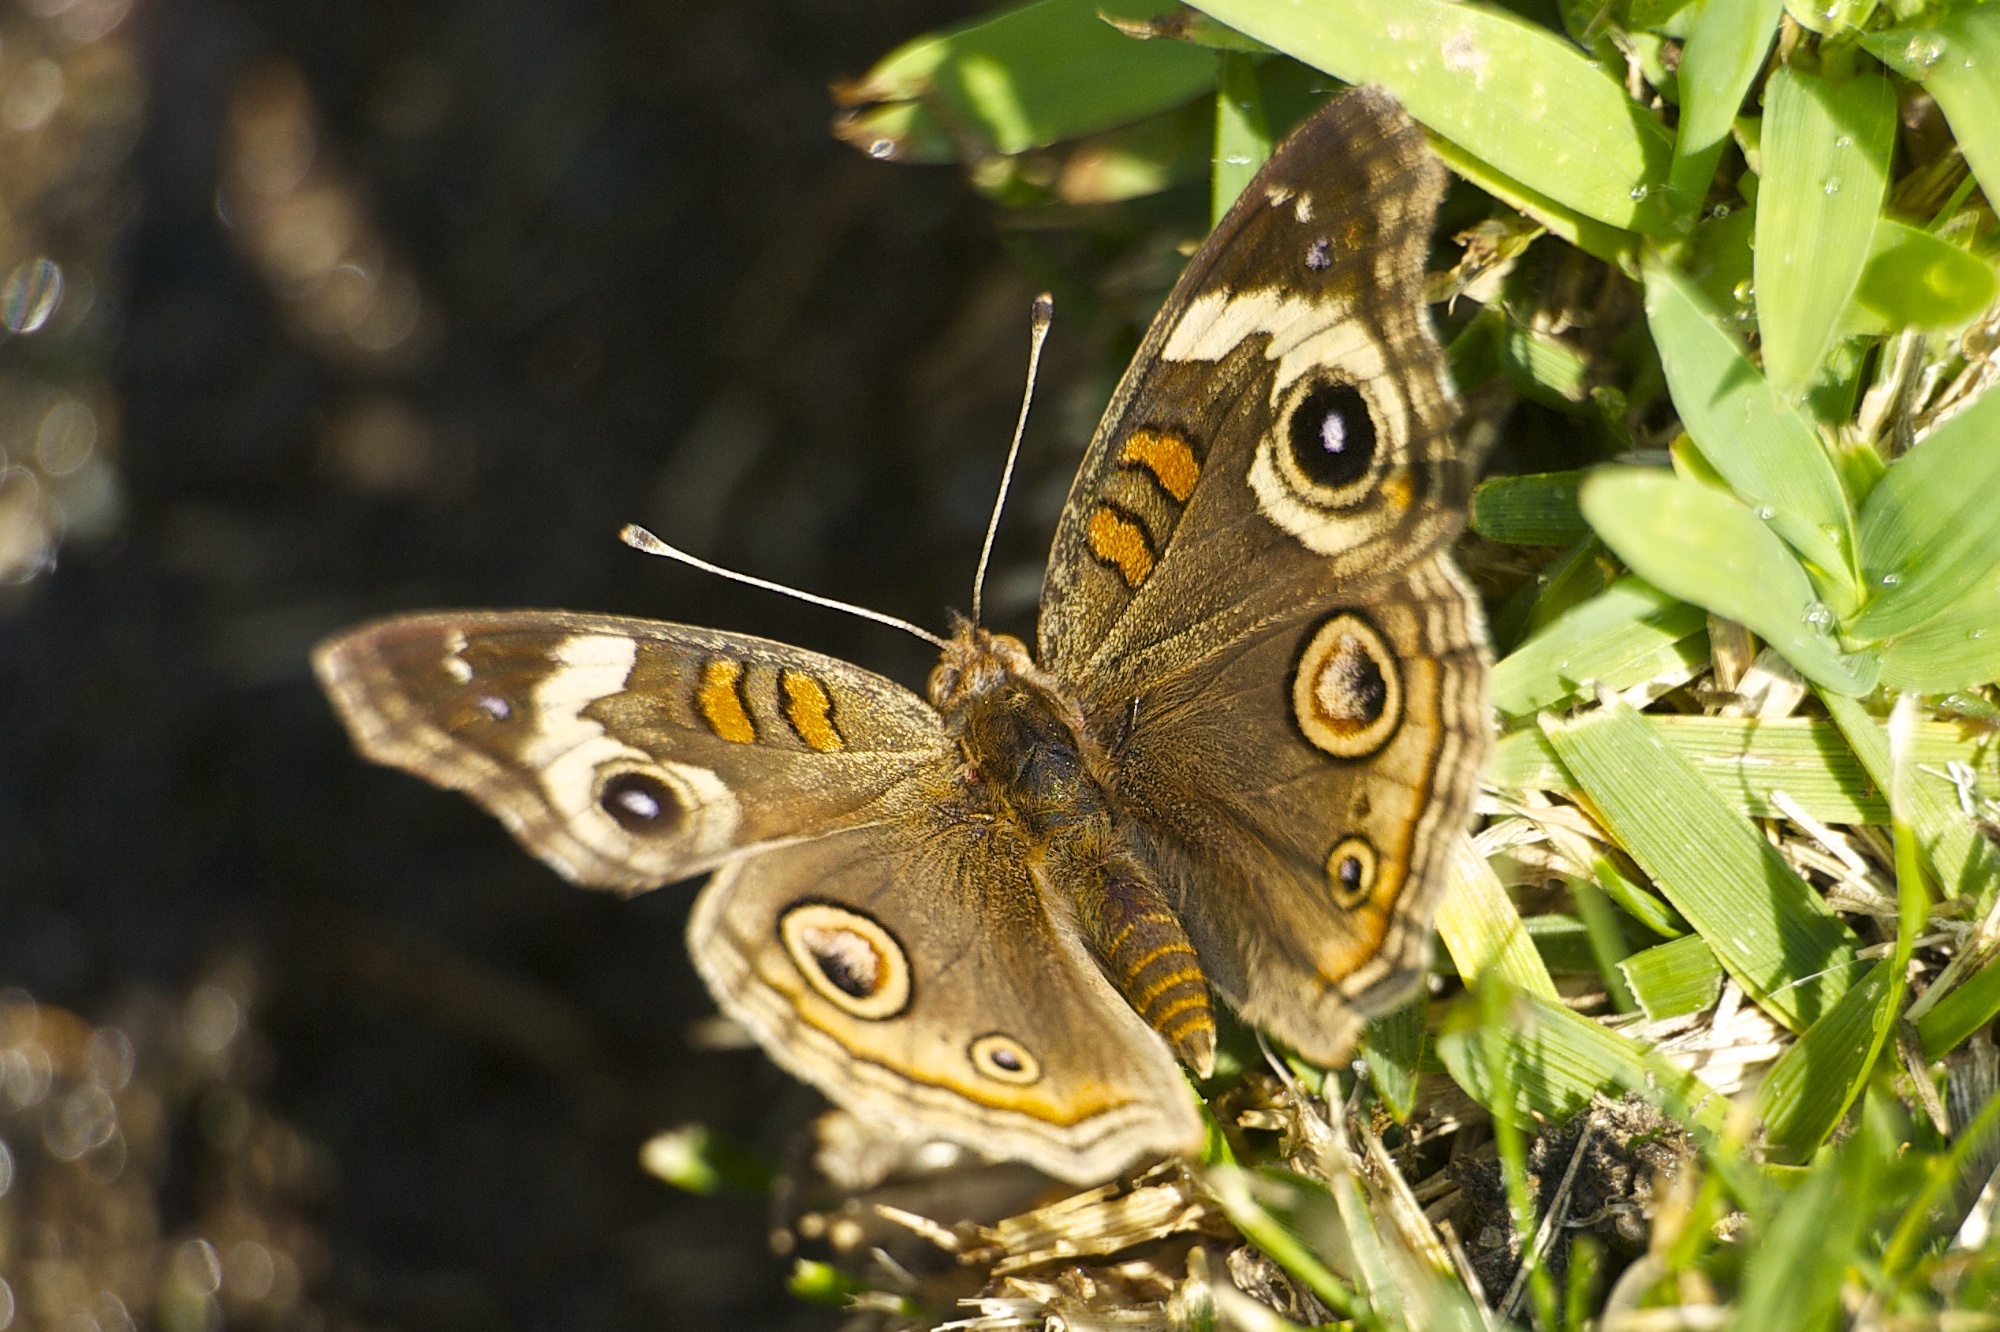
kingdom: Animalia
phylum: Arthropoda
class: Insecta
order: Lepidoptera
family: Nymphalidae
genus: Junonia
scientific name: Junonia grisea
